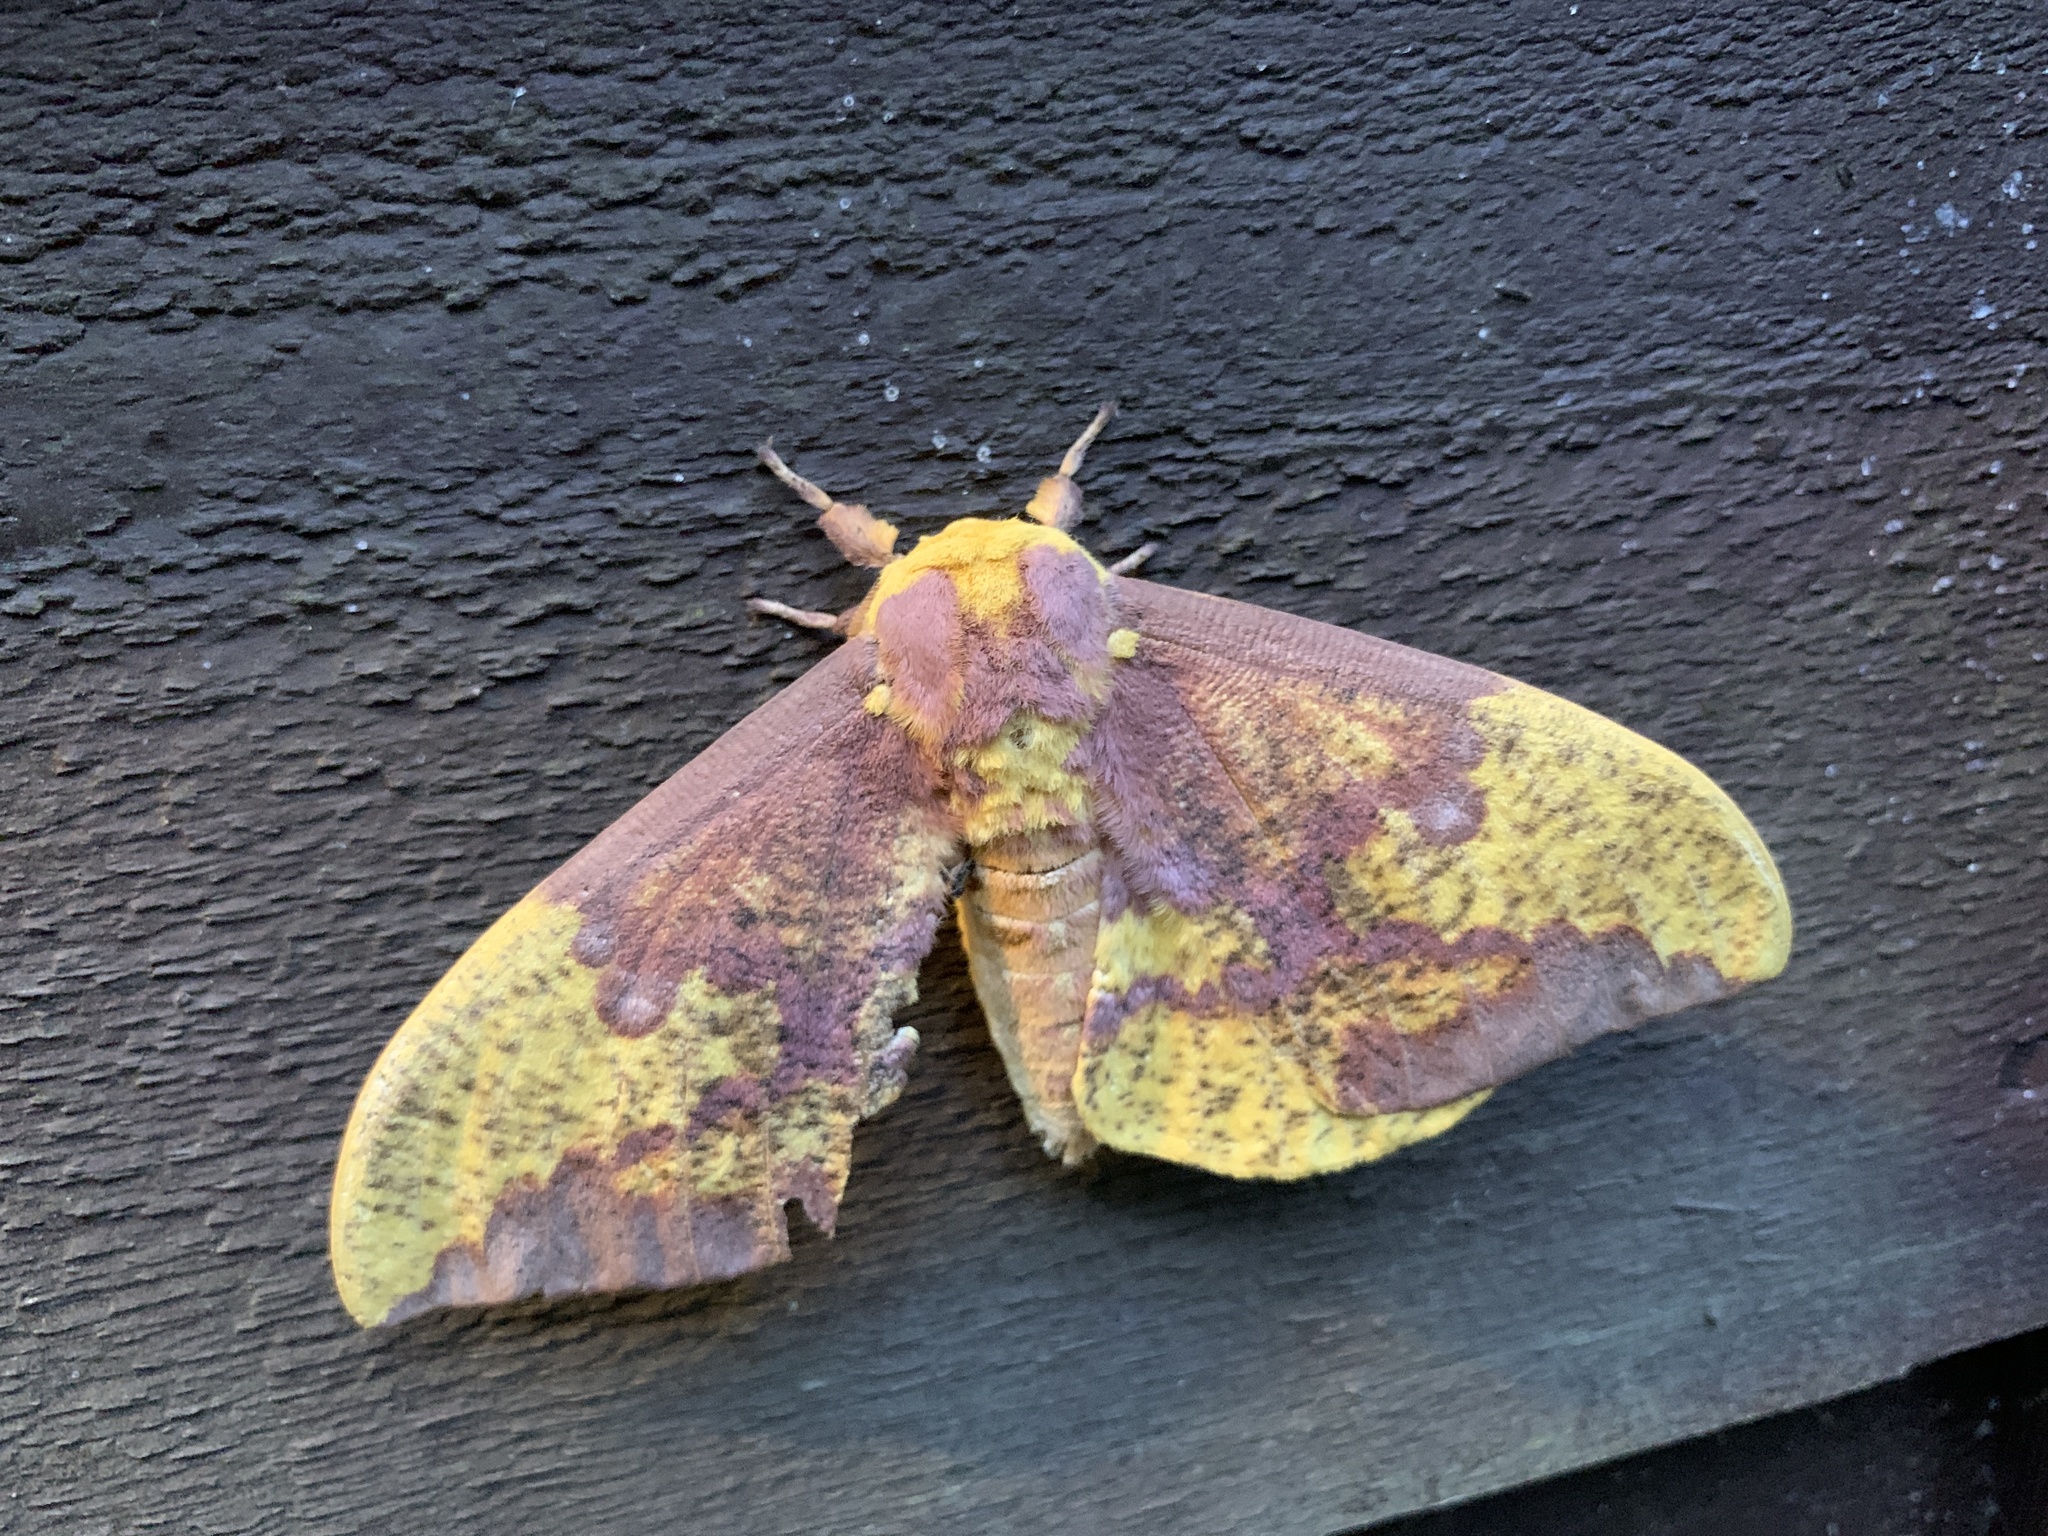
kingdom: Animalia
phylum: Arthropoda
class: Insecta
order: Lepidoptera
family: Saturniidae
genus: Eacles
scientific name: Eacles imperialis
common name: Imperial moth
